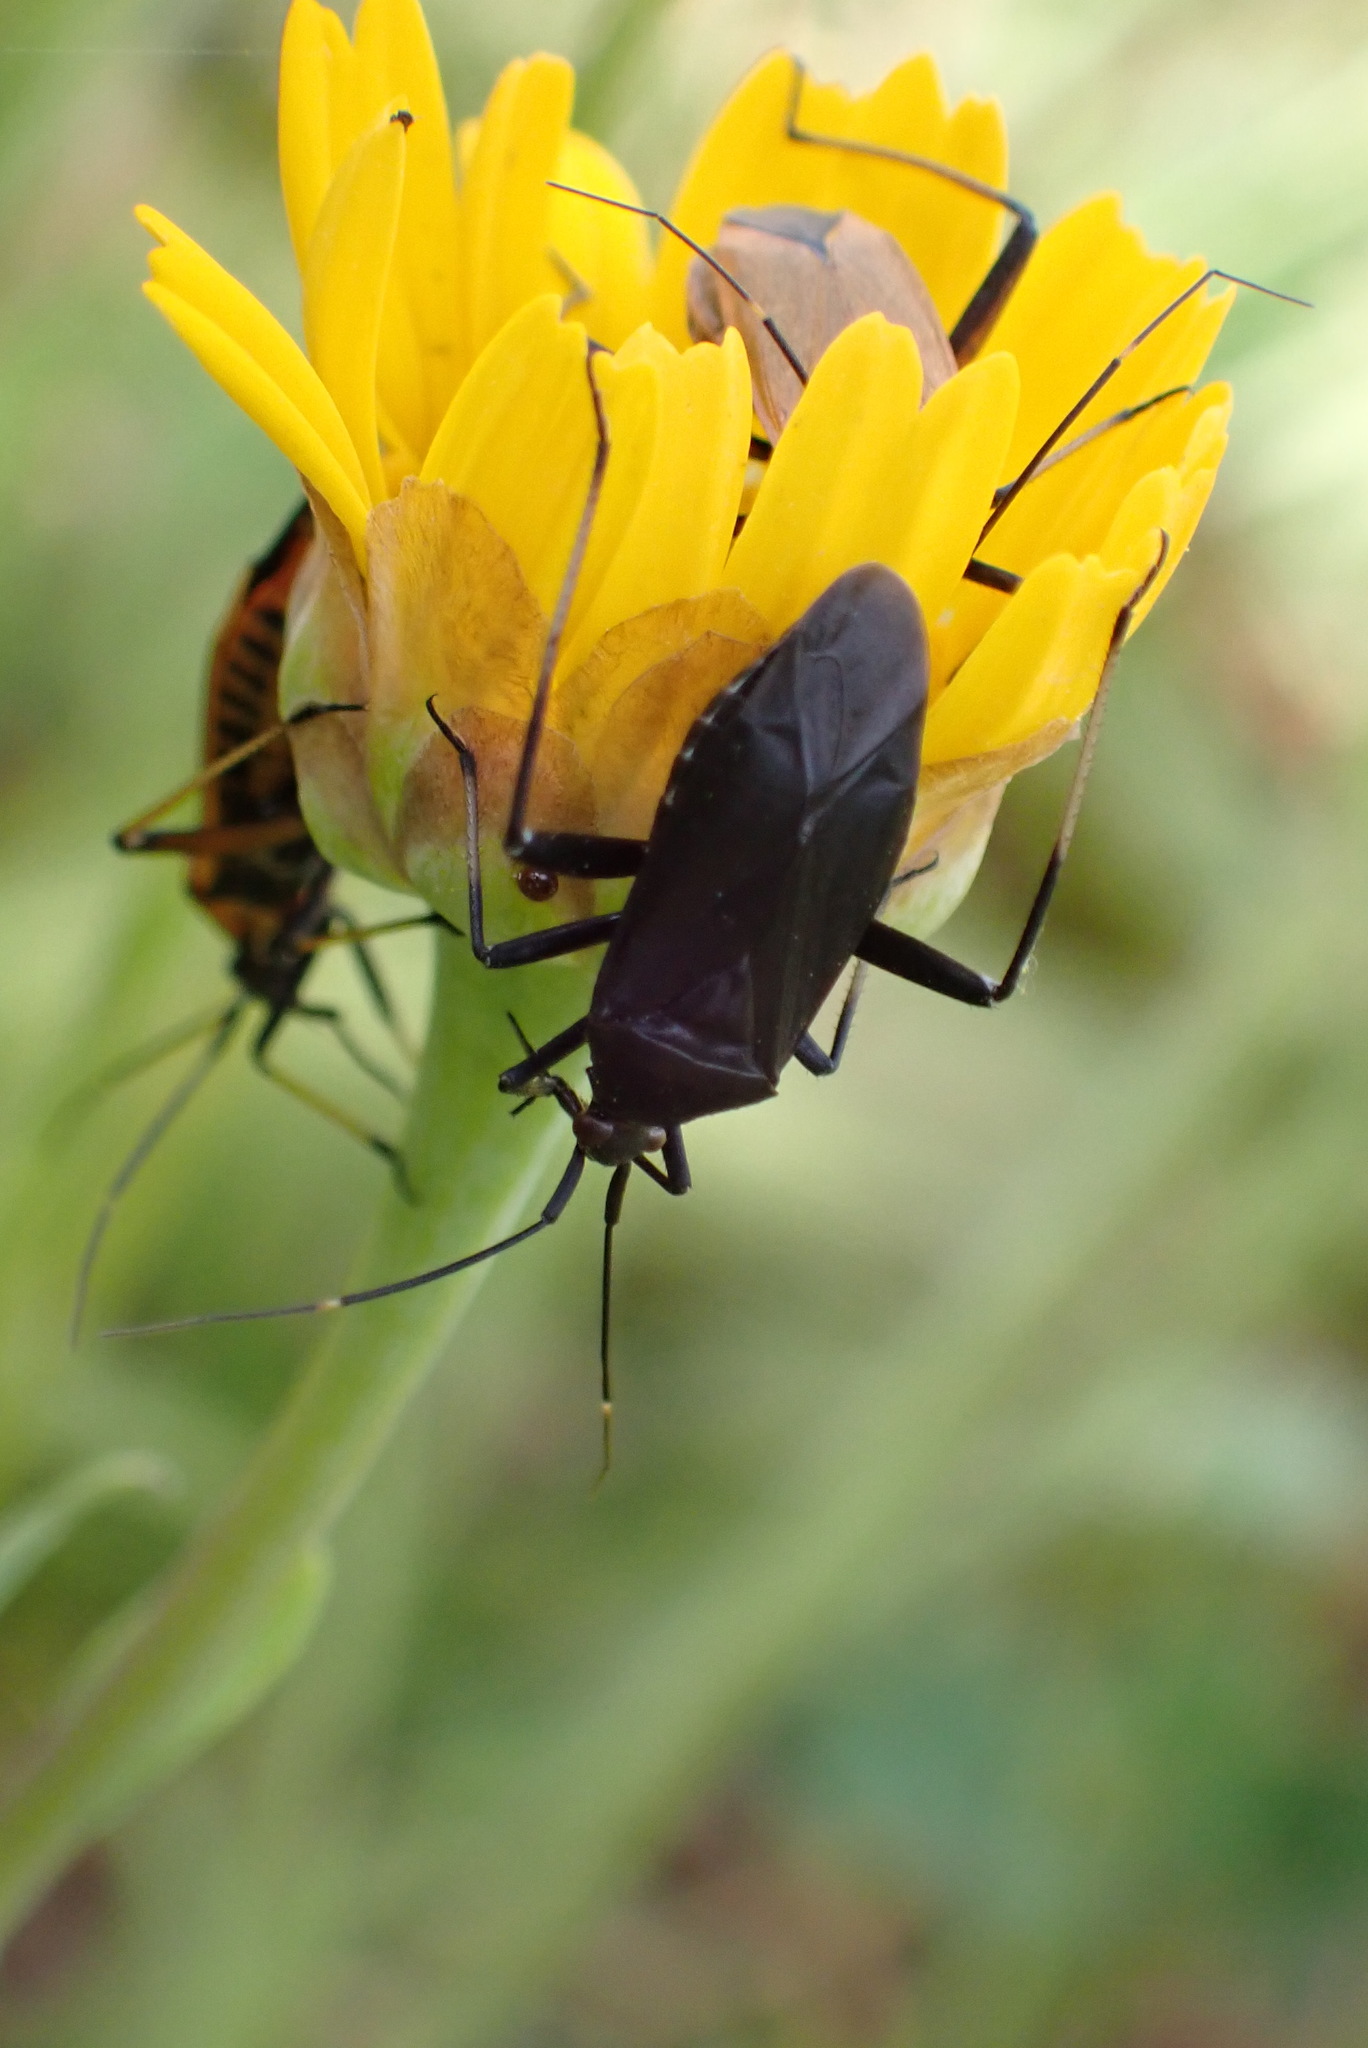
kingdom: Animalia
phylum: Arthropoda
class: Insecta
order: Hemiptera
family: Miridae
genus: Calocoris
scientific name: Calocoris nemoralis
